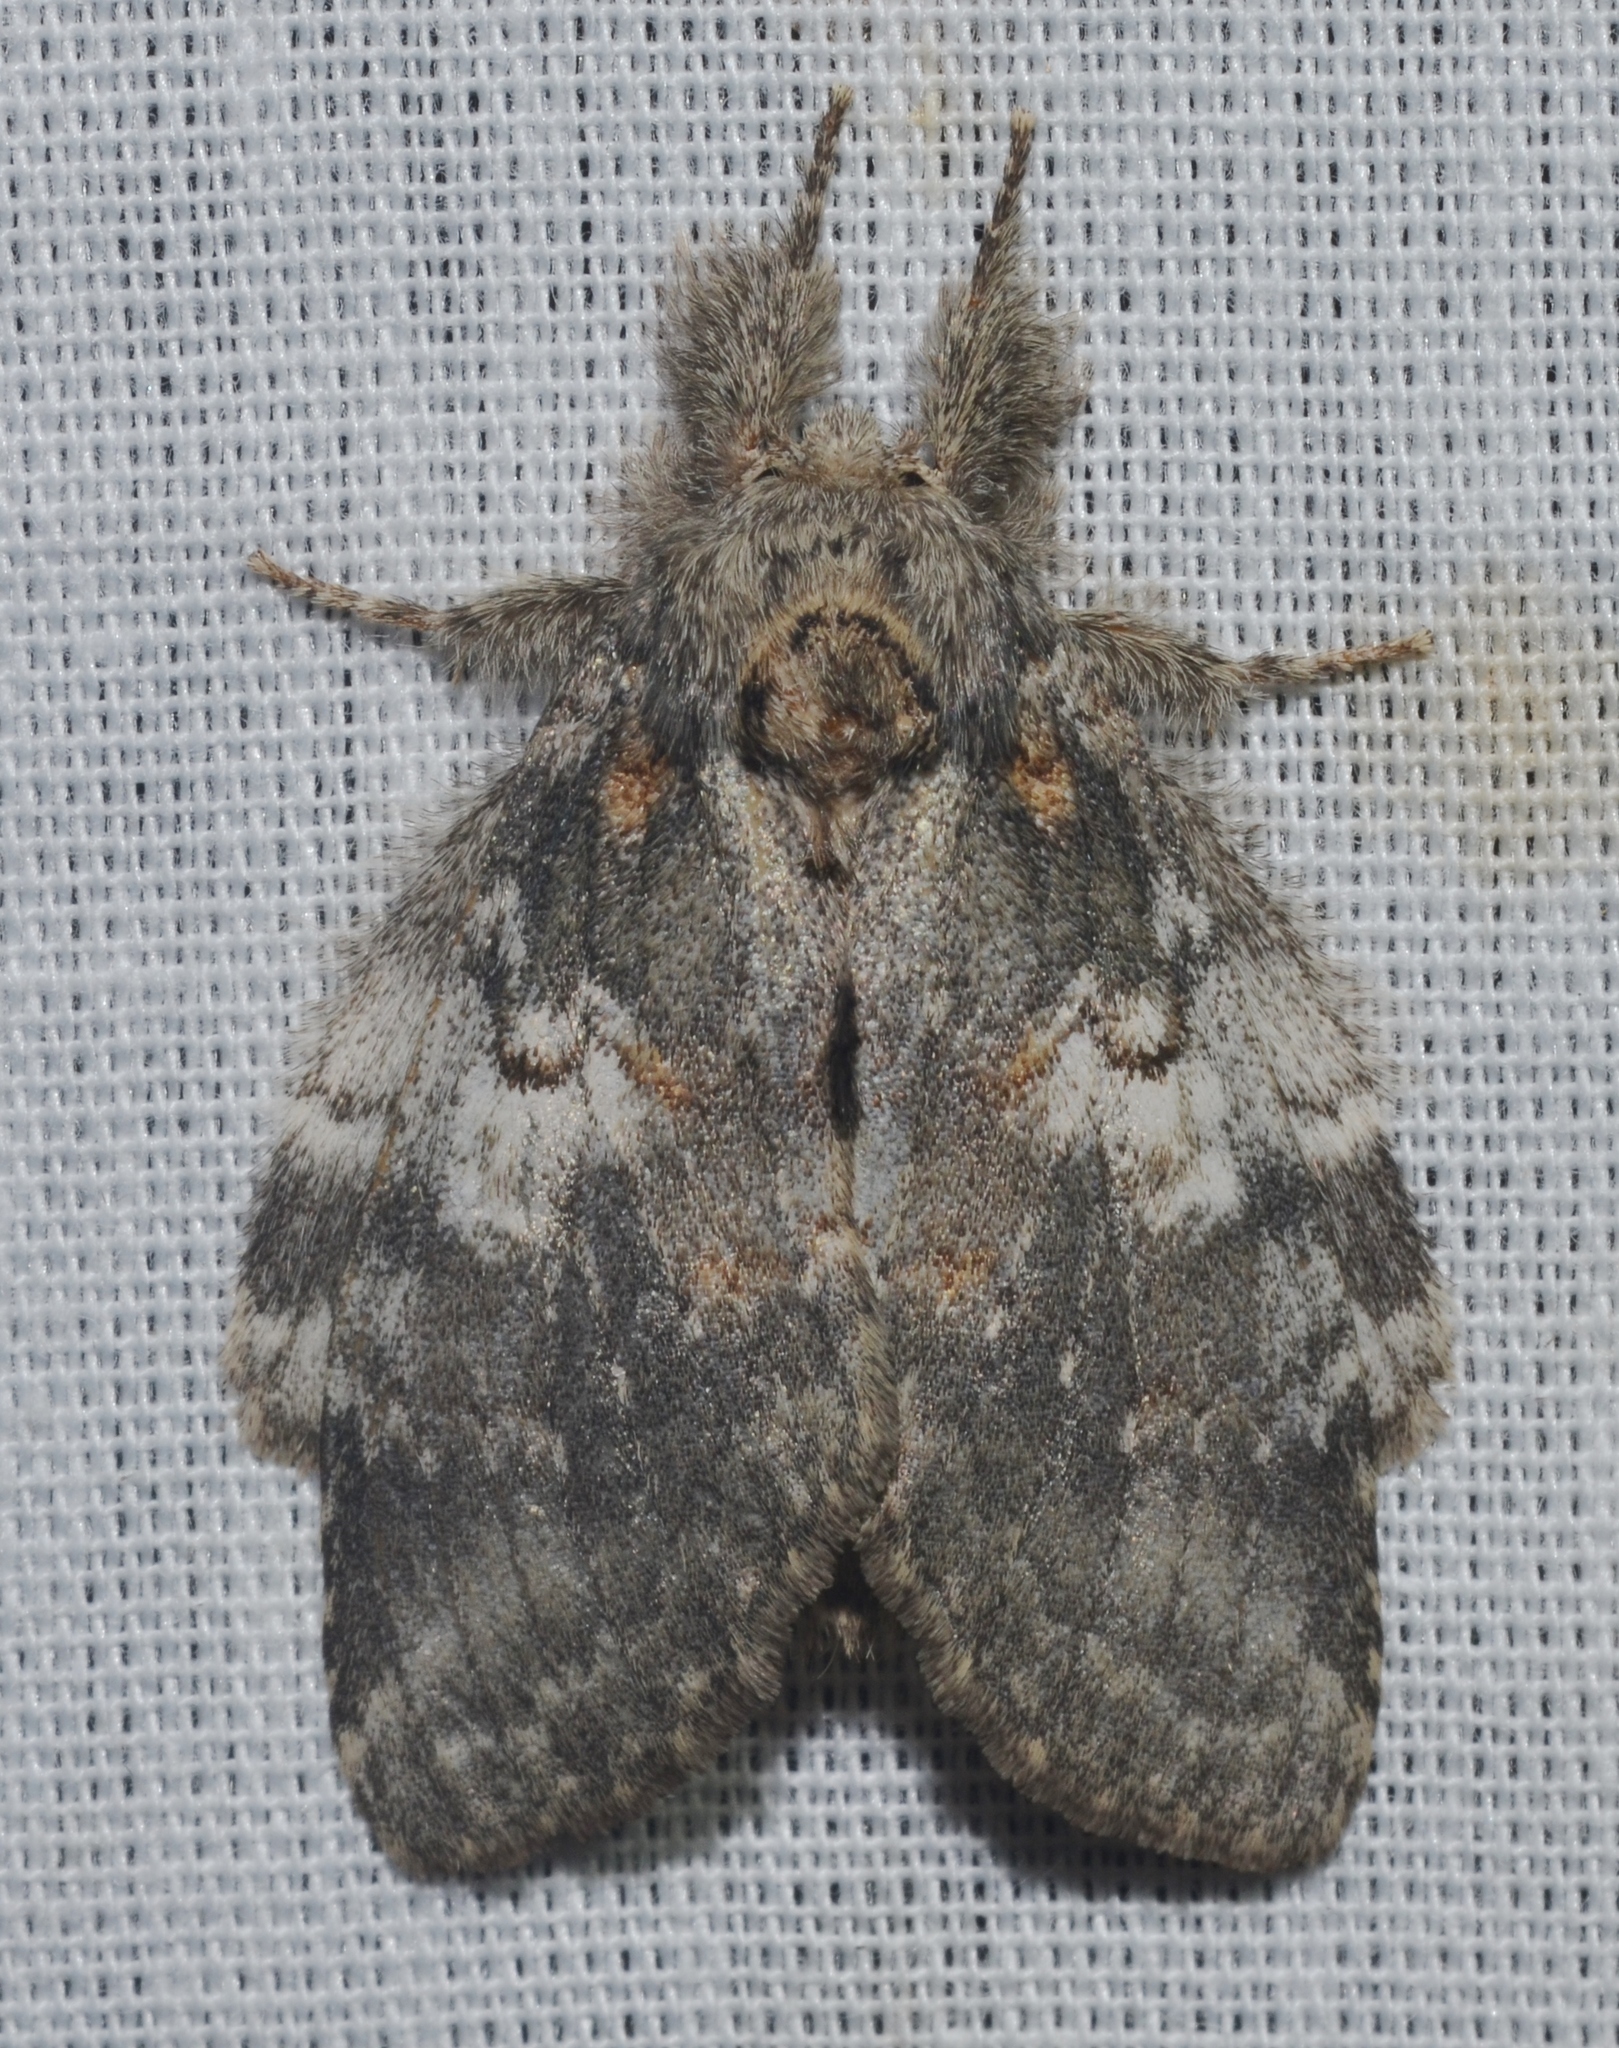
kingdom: Animalia
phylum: Arthropoda
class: Insecta
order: Lepidoptera
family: Notodontidae
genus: Peridea
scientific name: Peridea angulosa
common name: Angulose prominent
